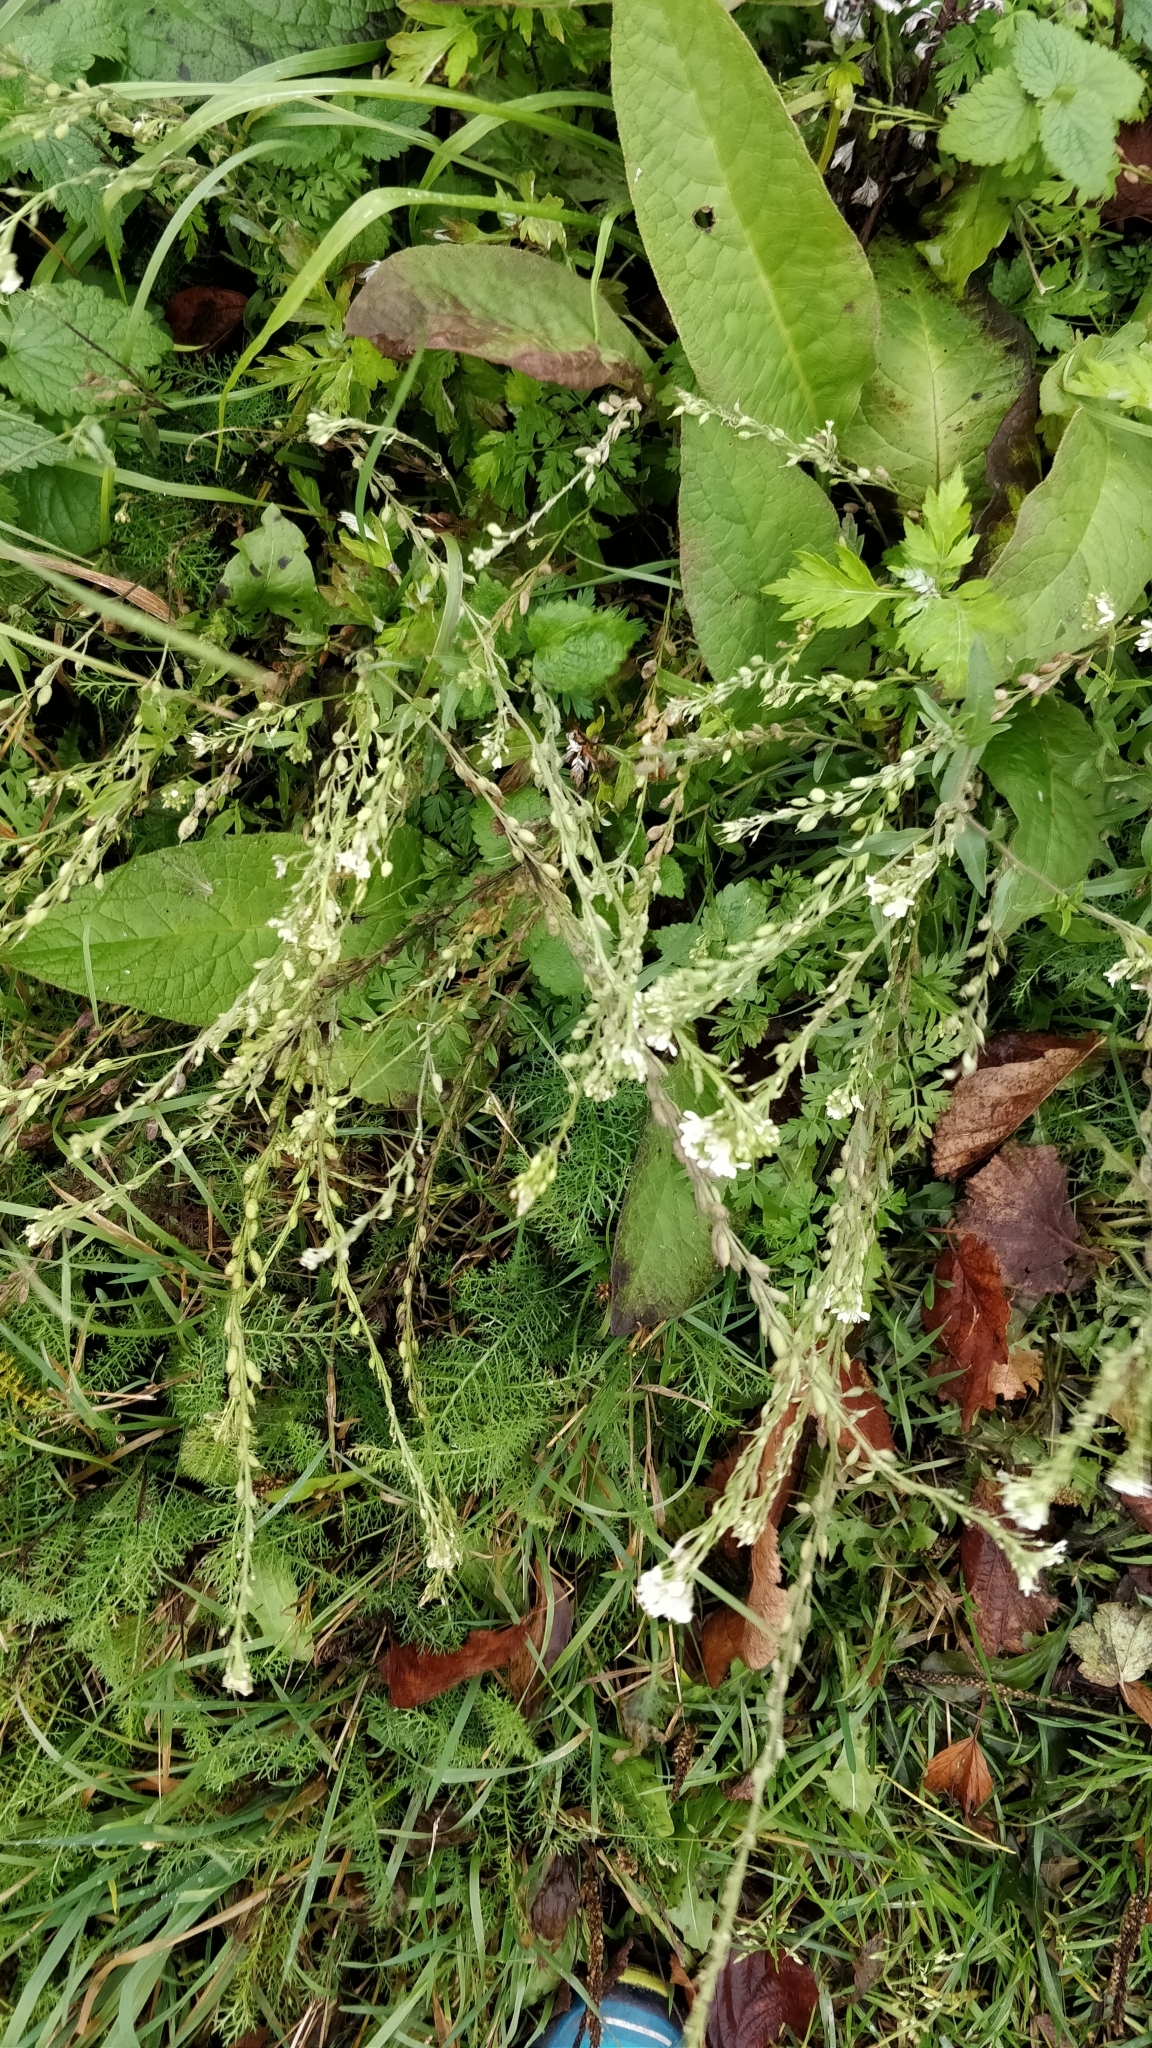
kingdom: Plantae
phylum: Tracheophyta
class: Magnoliopsida
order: Brassicales
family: Brassicaceae
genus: Berteroa
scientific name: Berteroa incana
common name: Hoary alison
